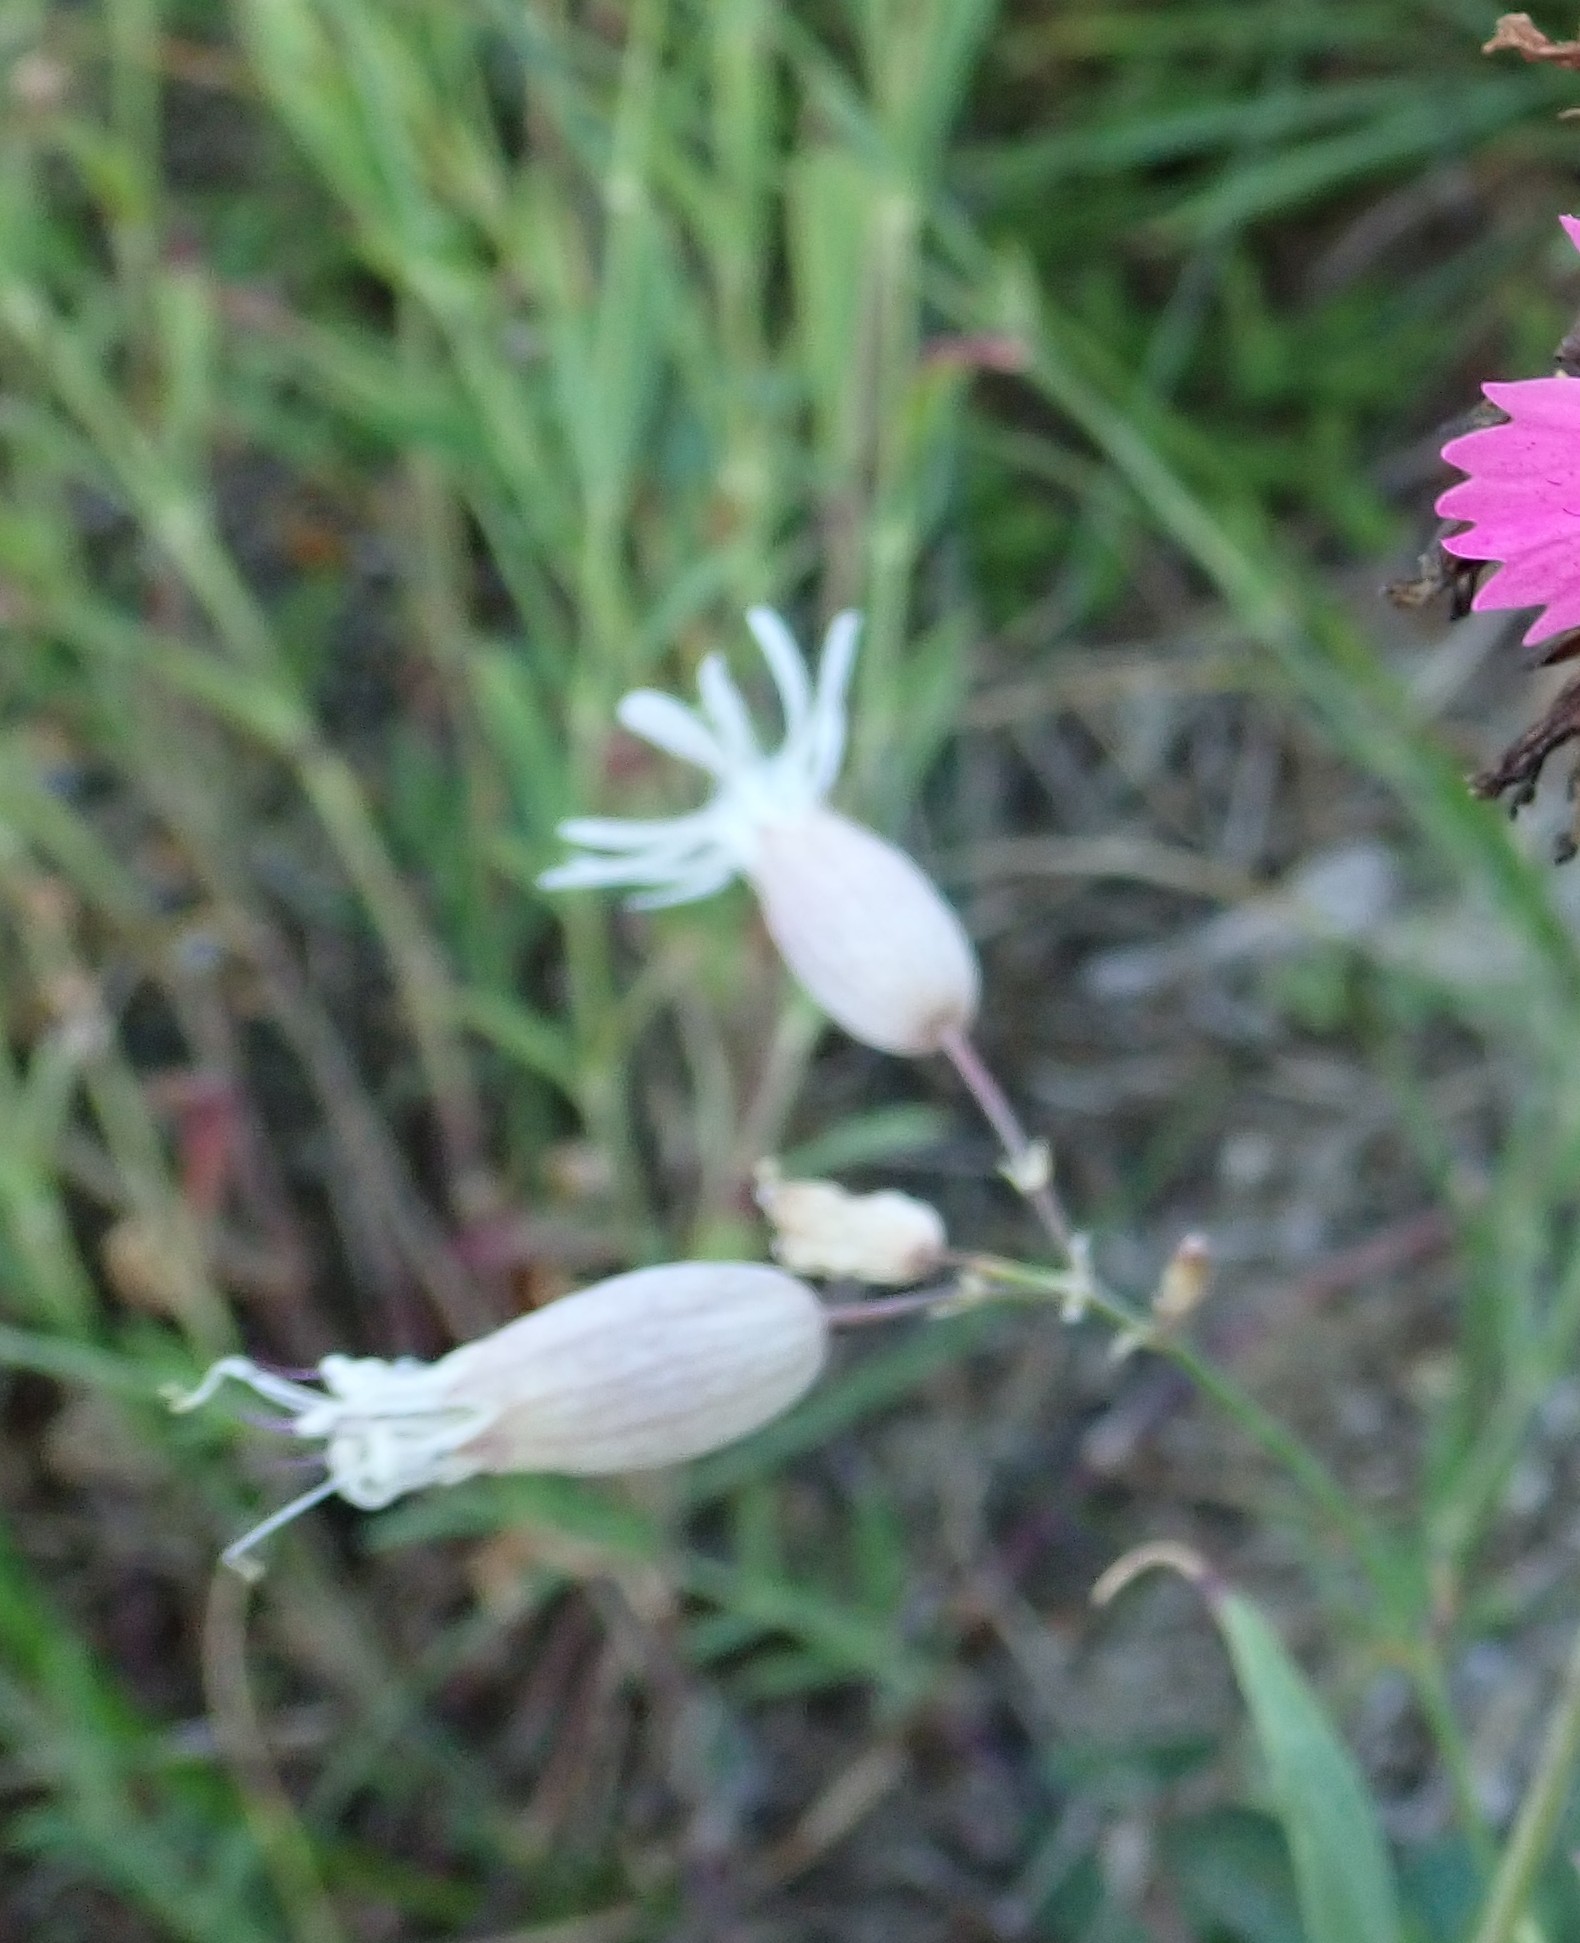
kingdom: Plantae
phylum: Tracheophyta
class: Magnoliopsida
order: Caryophyllales
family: Caryophyllaceae
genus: Silene
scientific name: Silene vulgaris
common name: Bladder campion
